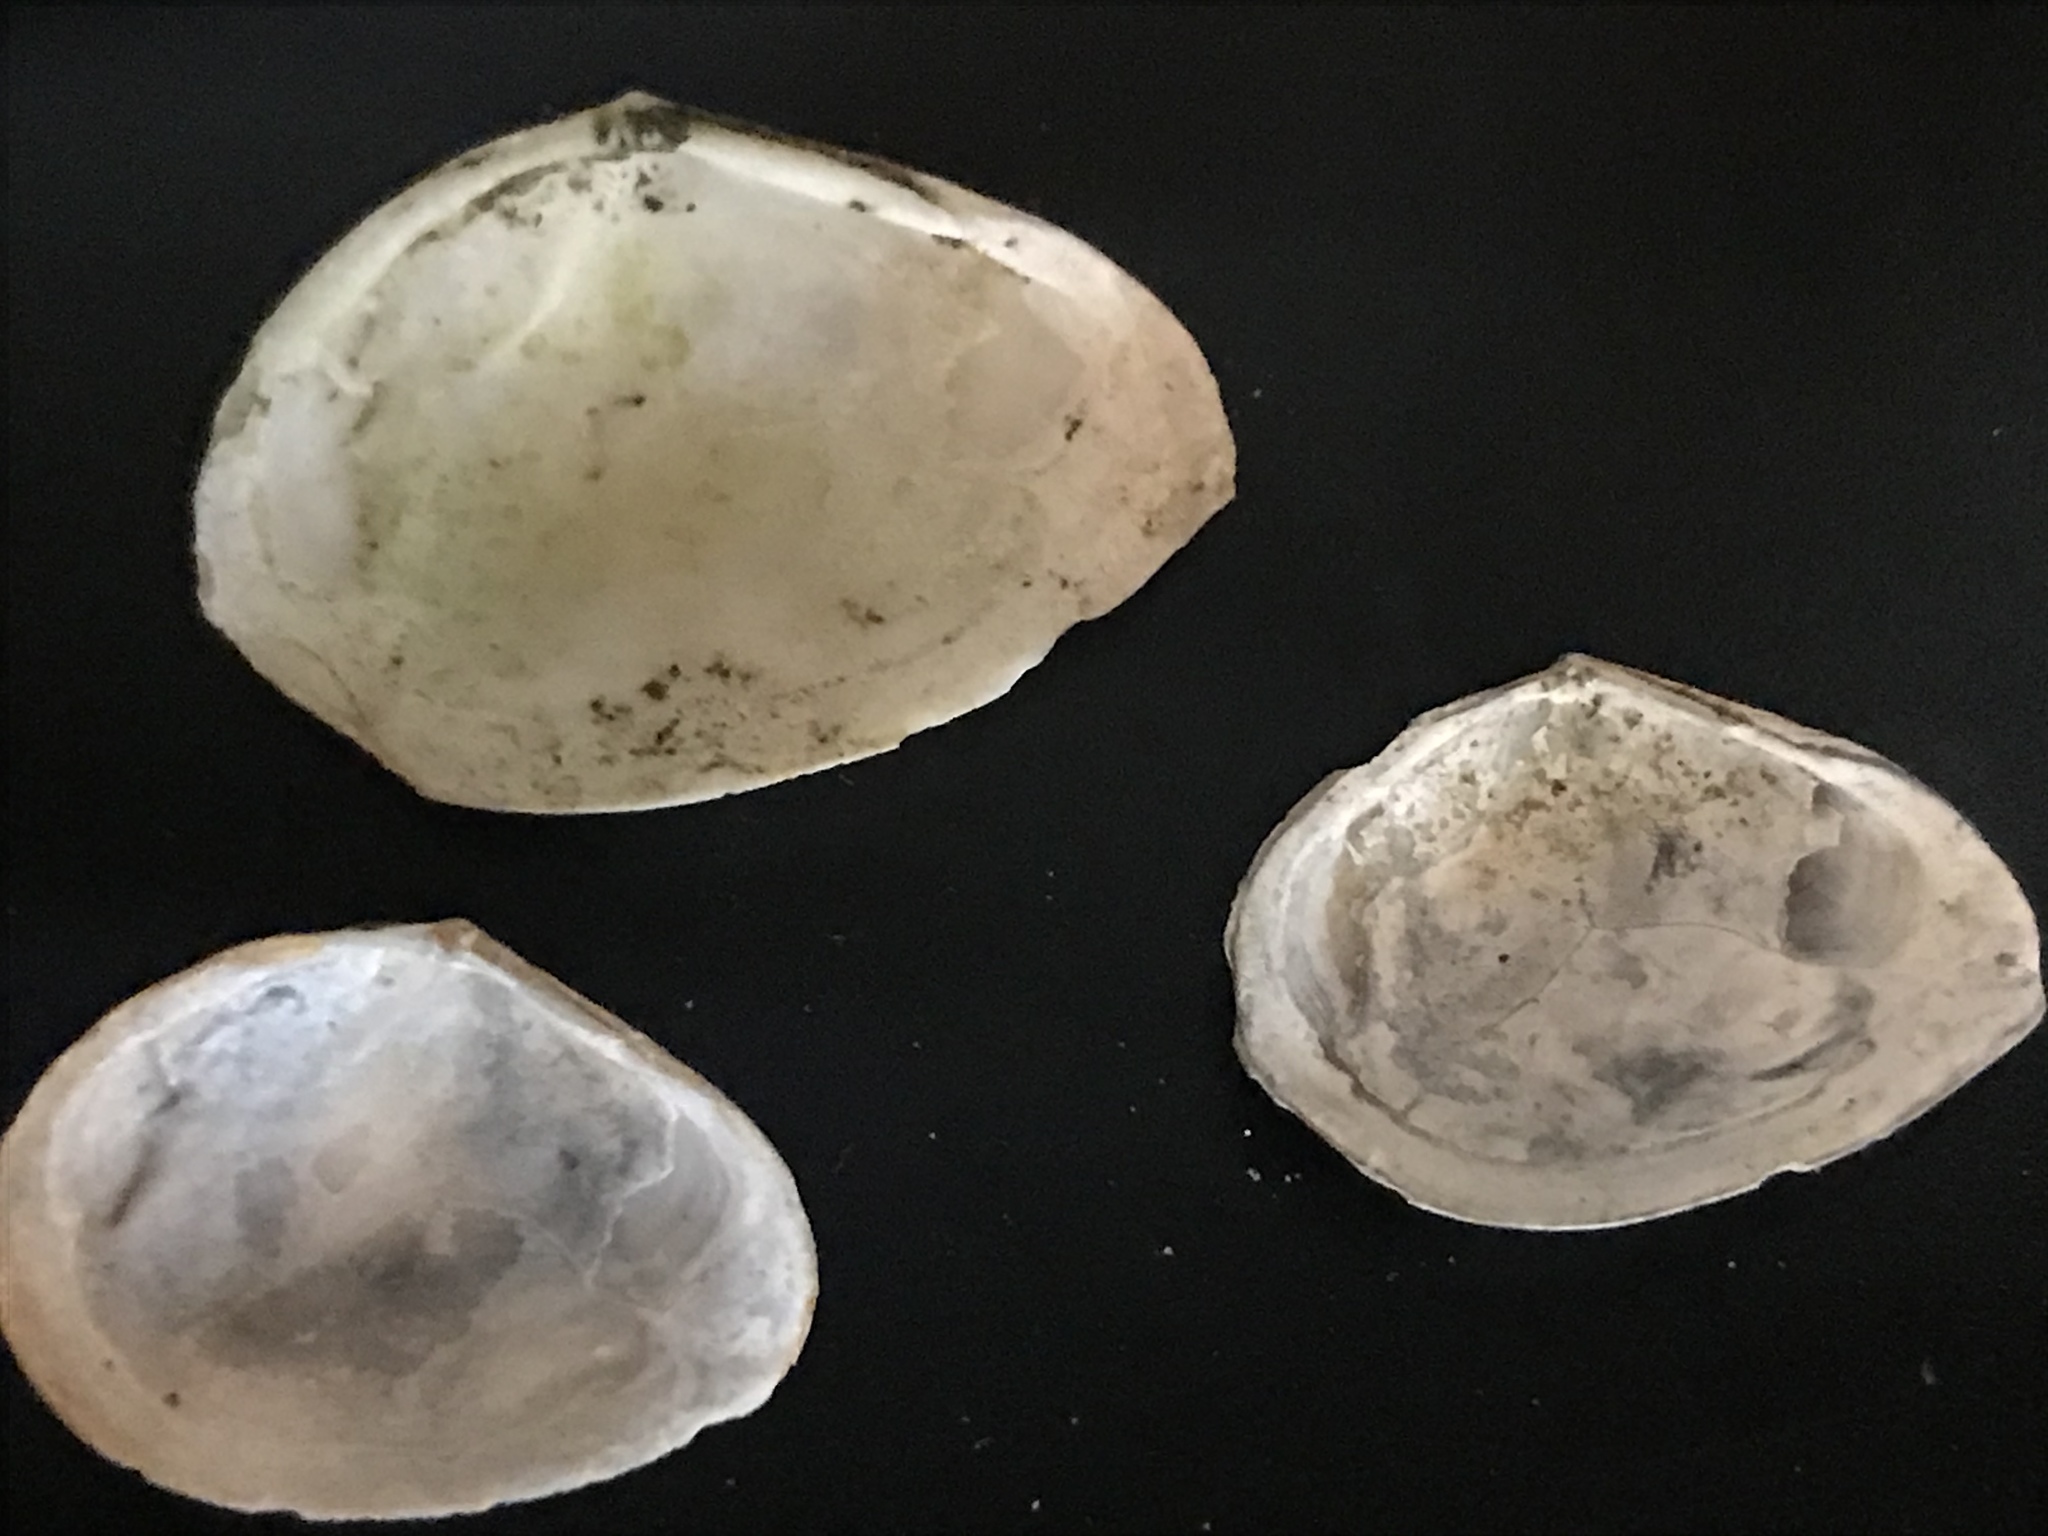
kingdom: Animalia
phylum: Mollusca
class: Bivalvia
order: Cardiida
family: Tellinidae
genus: Macoma
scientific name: Macoma nasuta
